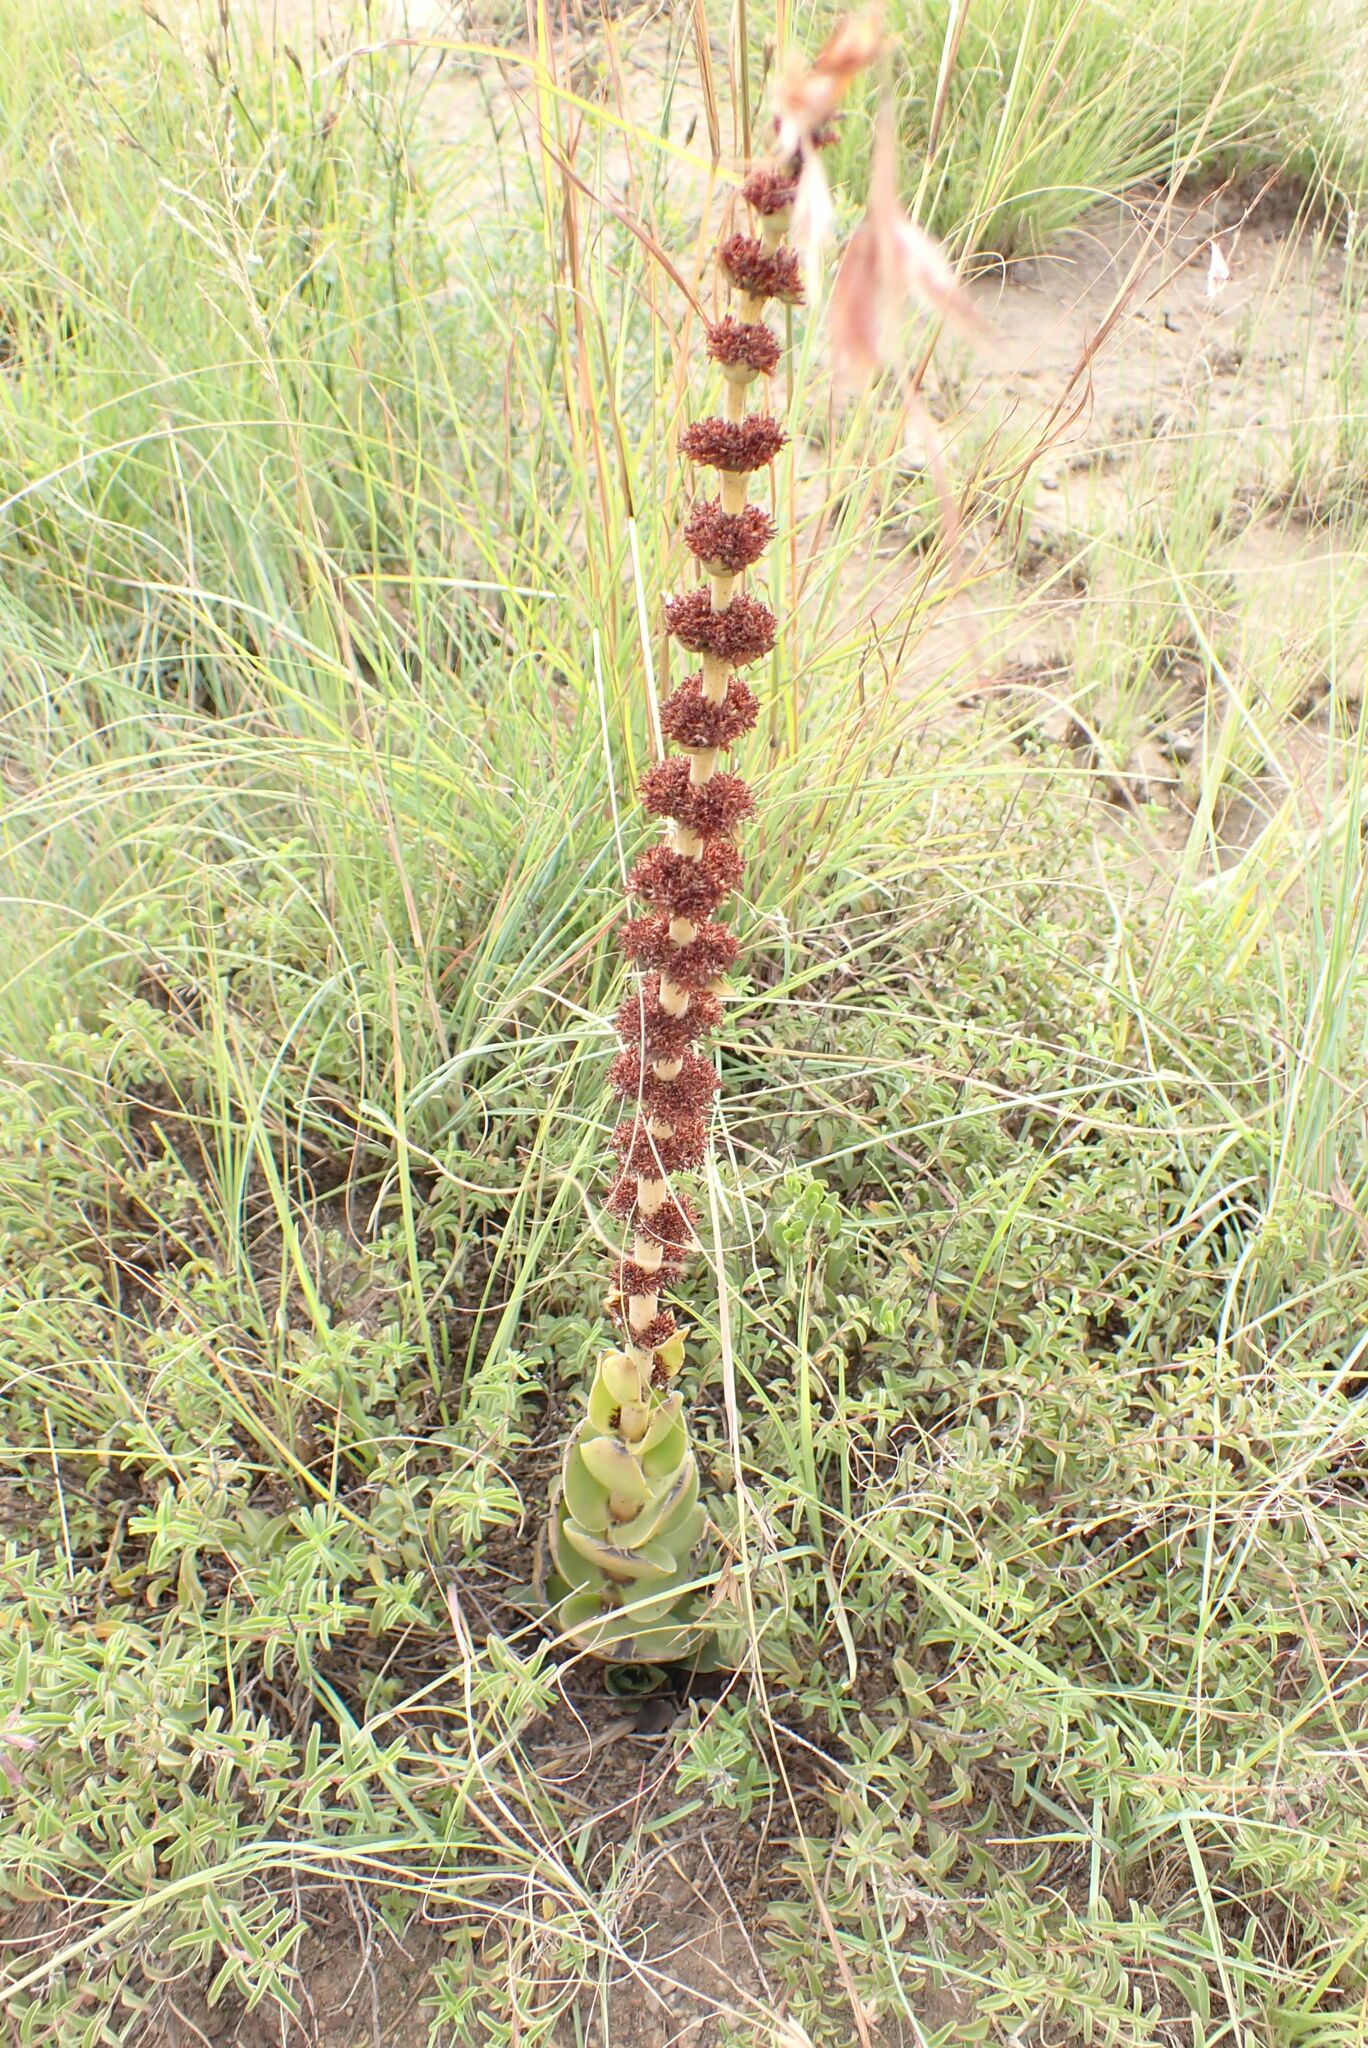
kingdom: Plantae
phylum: Tracheophyta
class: Magnoliopsida
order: Saxifragales
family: Crassulaceae
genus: Crassula
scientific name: Crassula nodulosa
